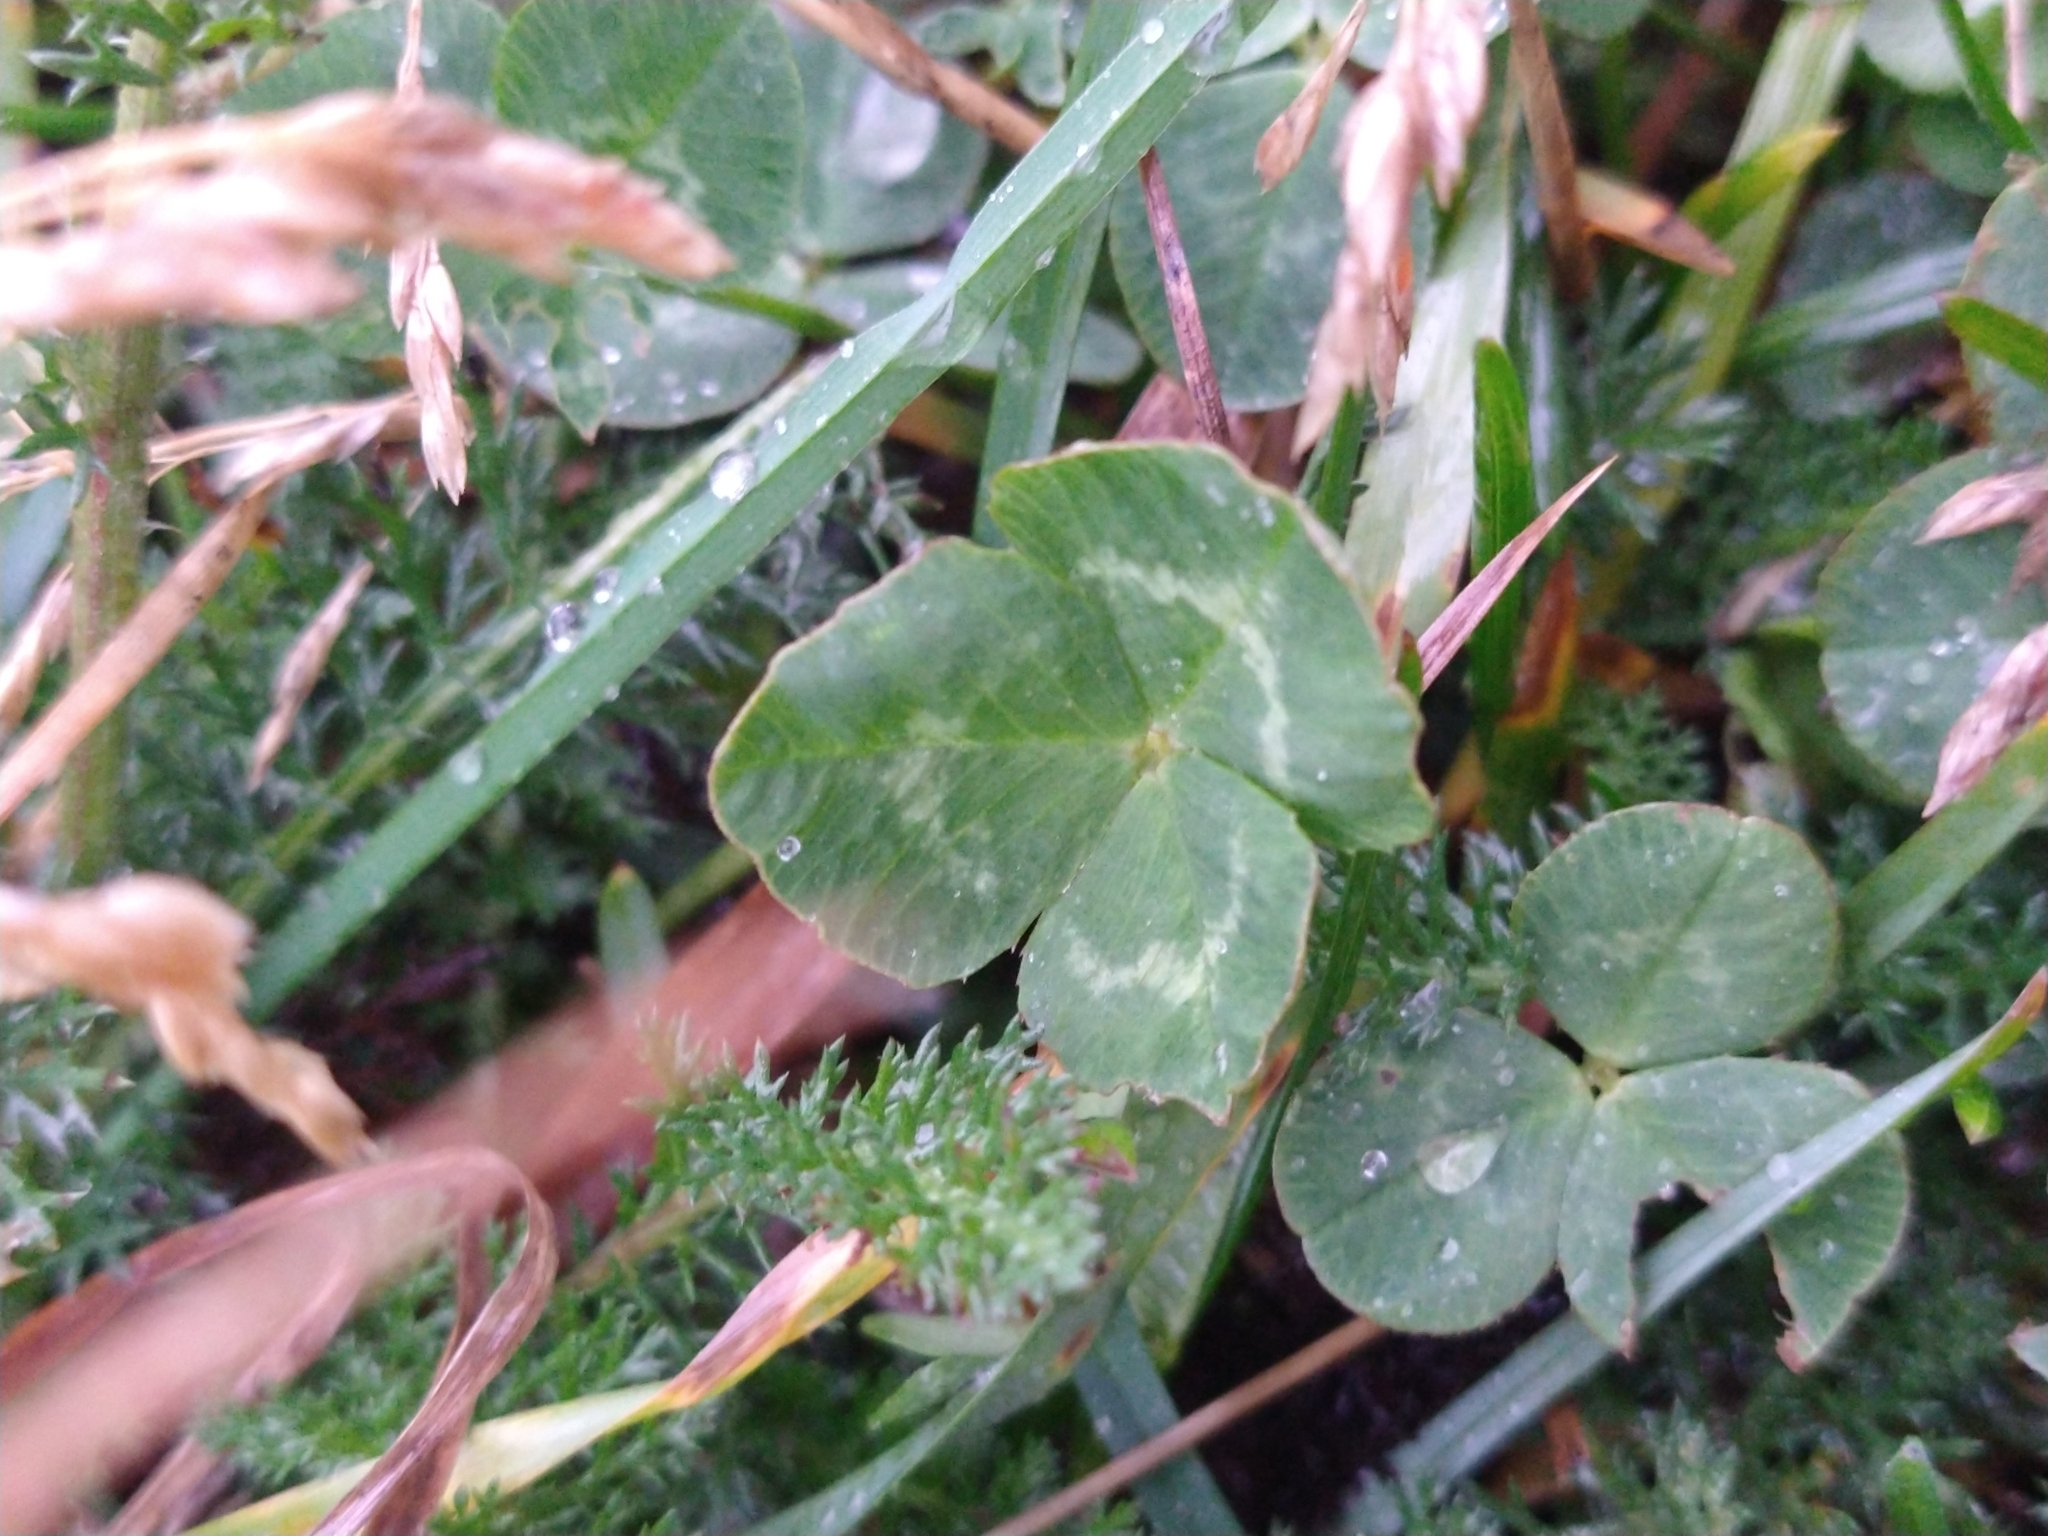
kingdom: Plantae
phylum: Tracheophyta
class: Magnoliopsida
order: Fabales
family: Fabaceae
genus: Trifolium
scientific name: Trifolium repens
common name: White clover
